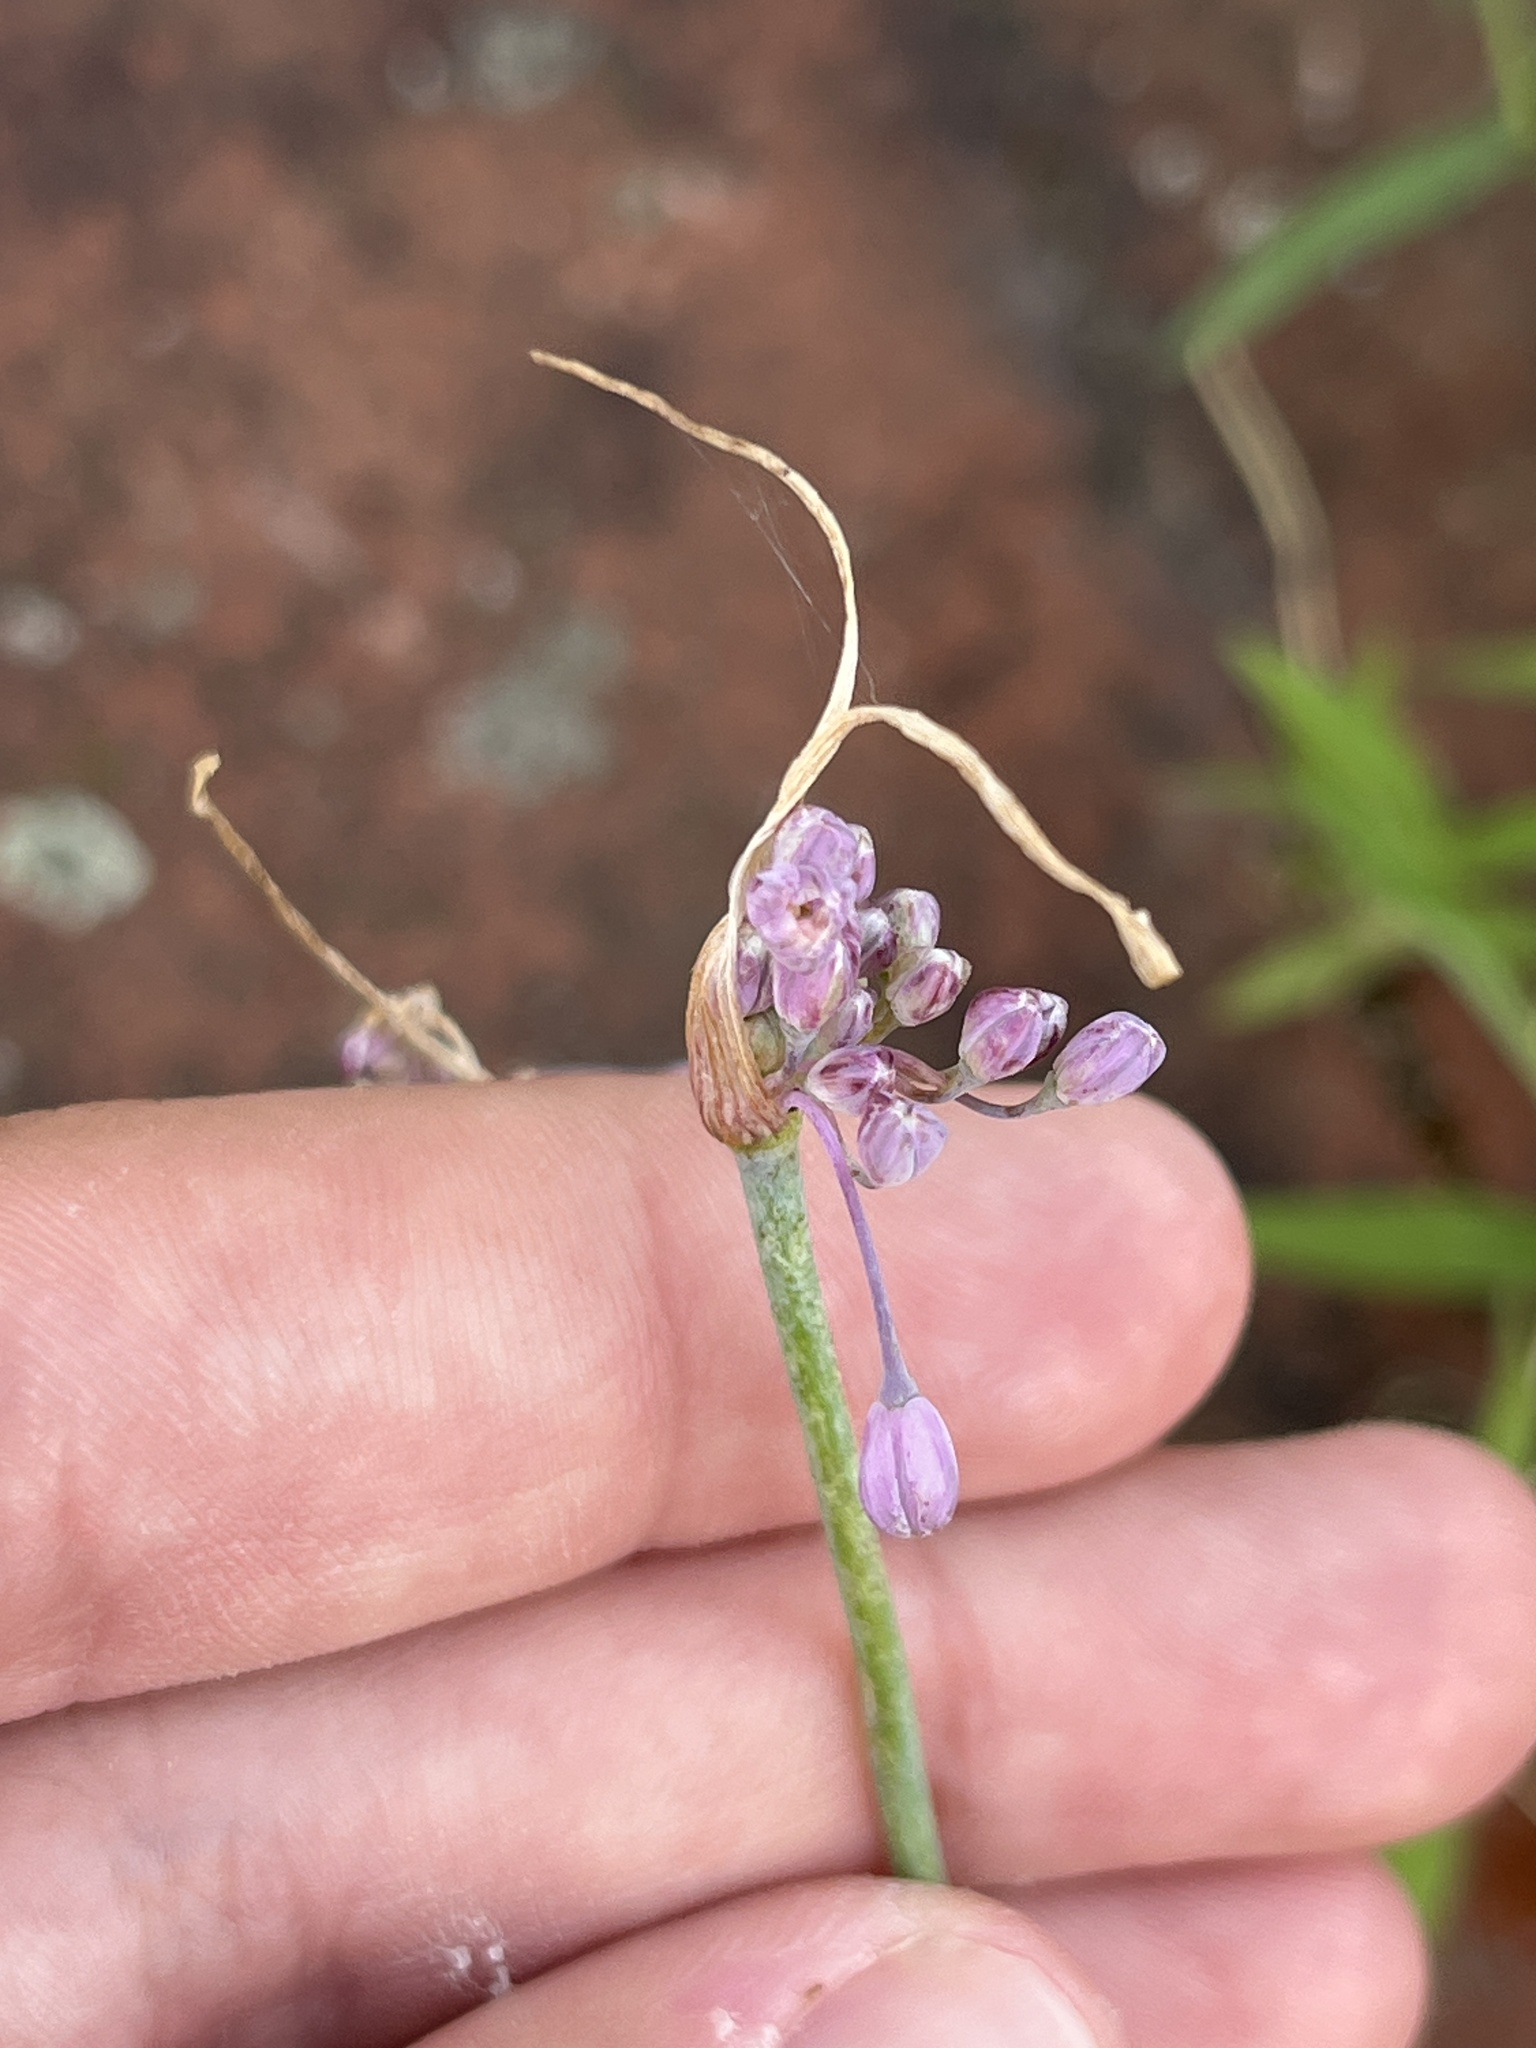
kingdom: Plantae
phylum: Tracheophyta
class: Liliopsida
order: Asparagales
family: Amaryllidaceae
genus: Allium
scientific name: Allium carinatum
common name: Keeled garlic
